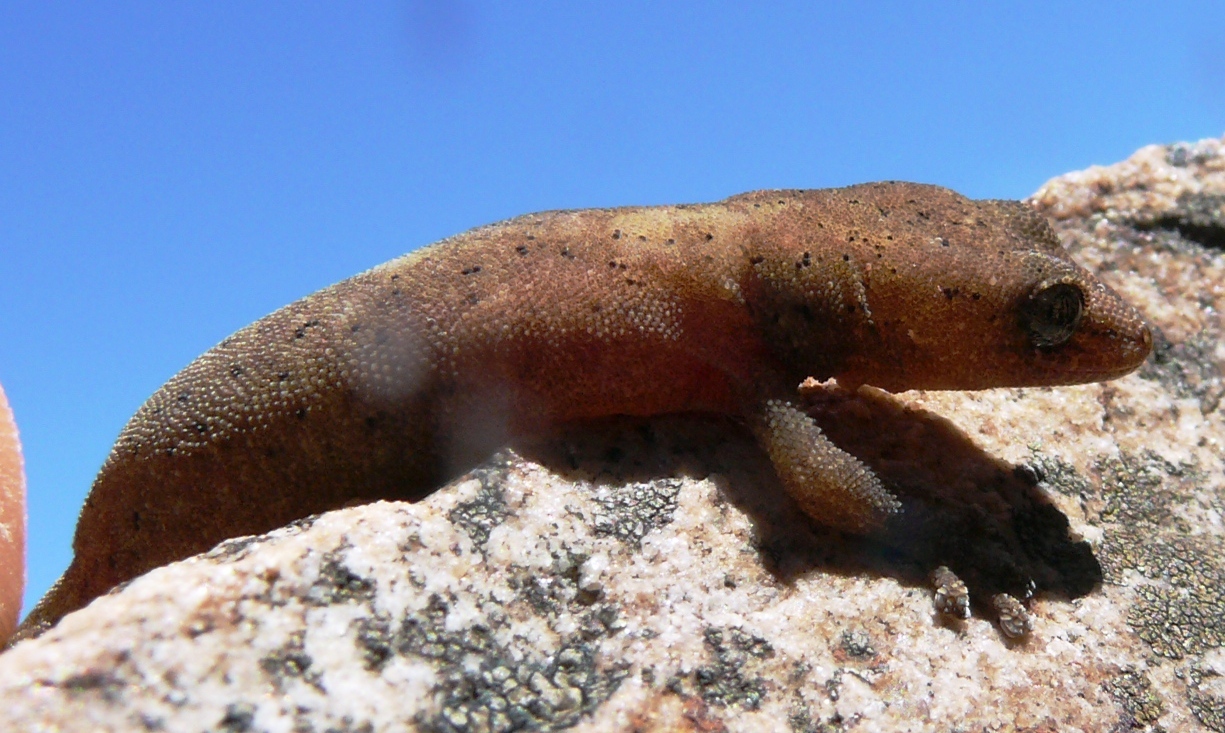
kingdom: Animalia
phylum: Chordata
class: Squamata
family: Gekkonidae
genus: Afrogecko
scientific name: Afrogecko porphyreus
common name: Marbled leaf-toed gecko
